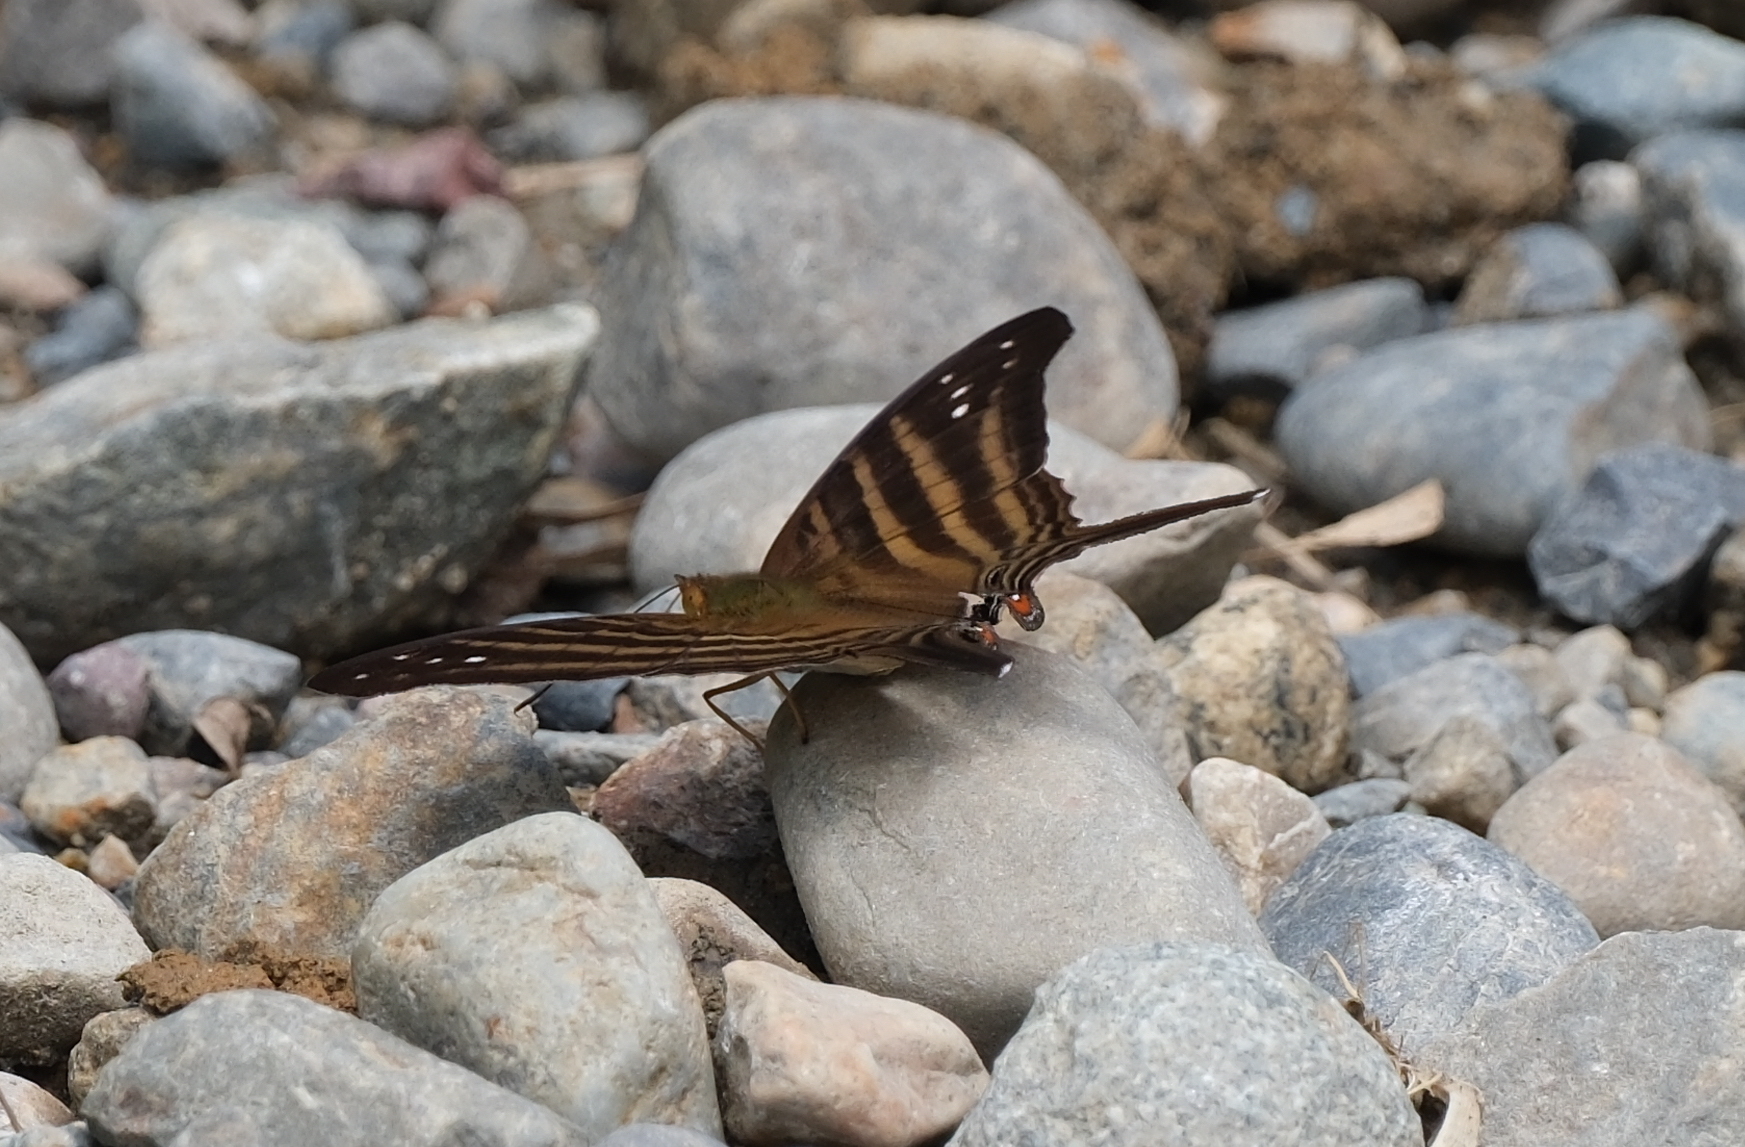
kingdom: Animalia
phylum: Arthropoda
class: Insecta
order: Lepidoptera
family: Nymphalidae
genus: Marpesia
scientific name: Marpesia chiron
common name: Many-banded daggerwing
